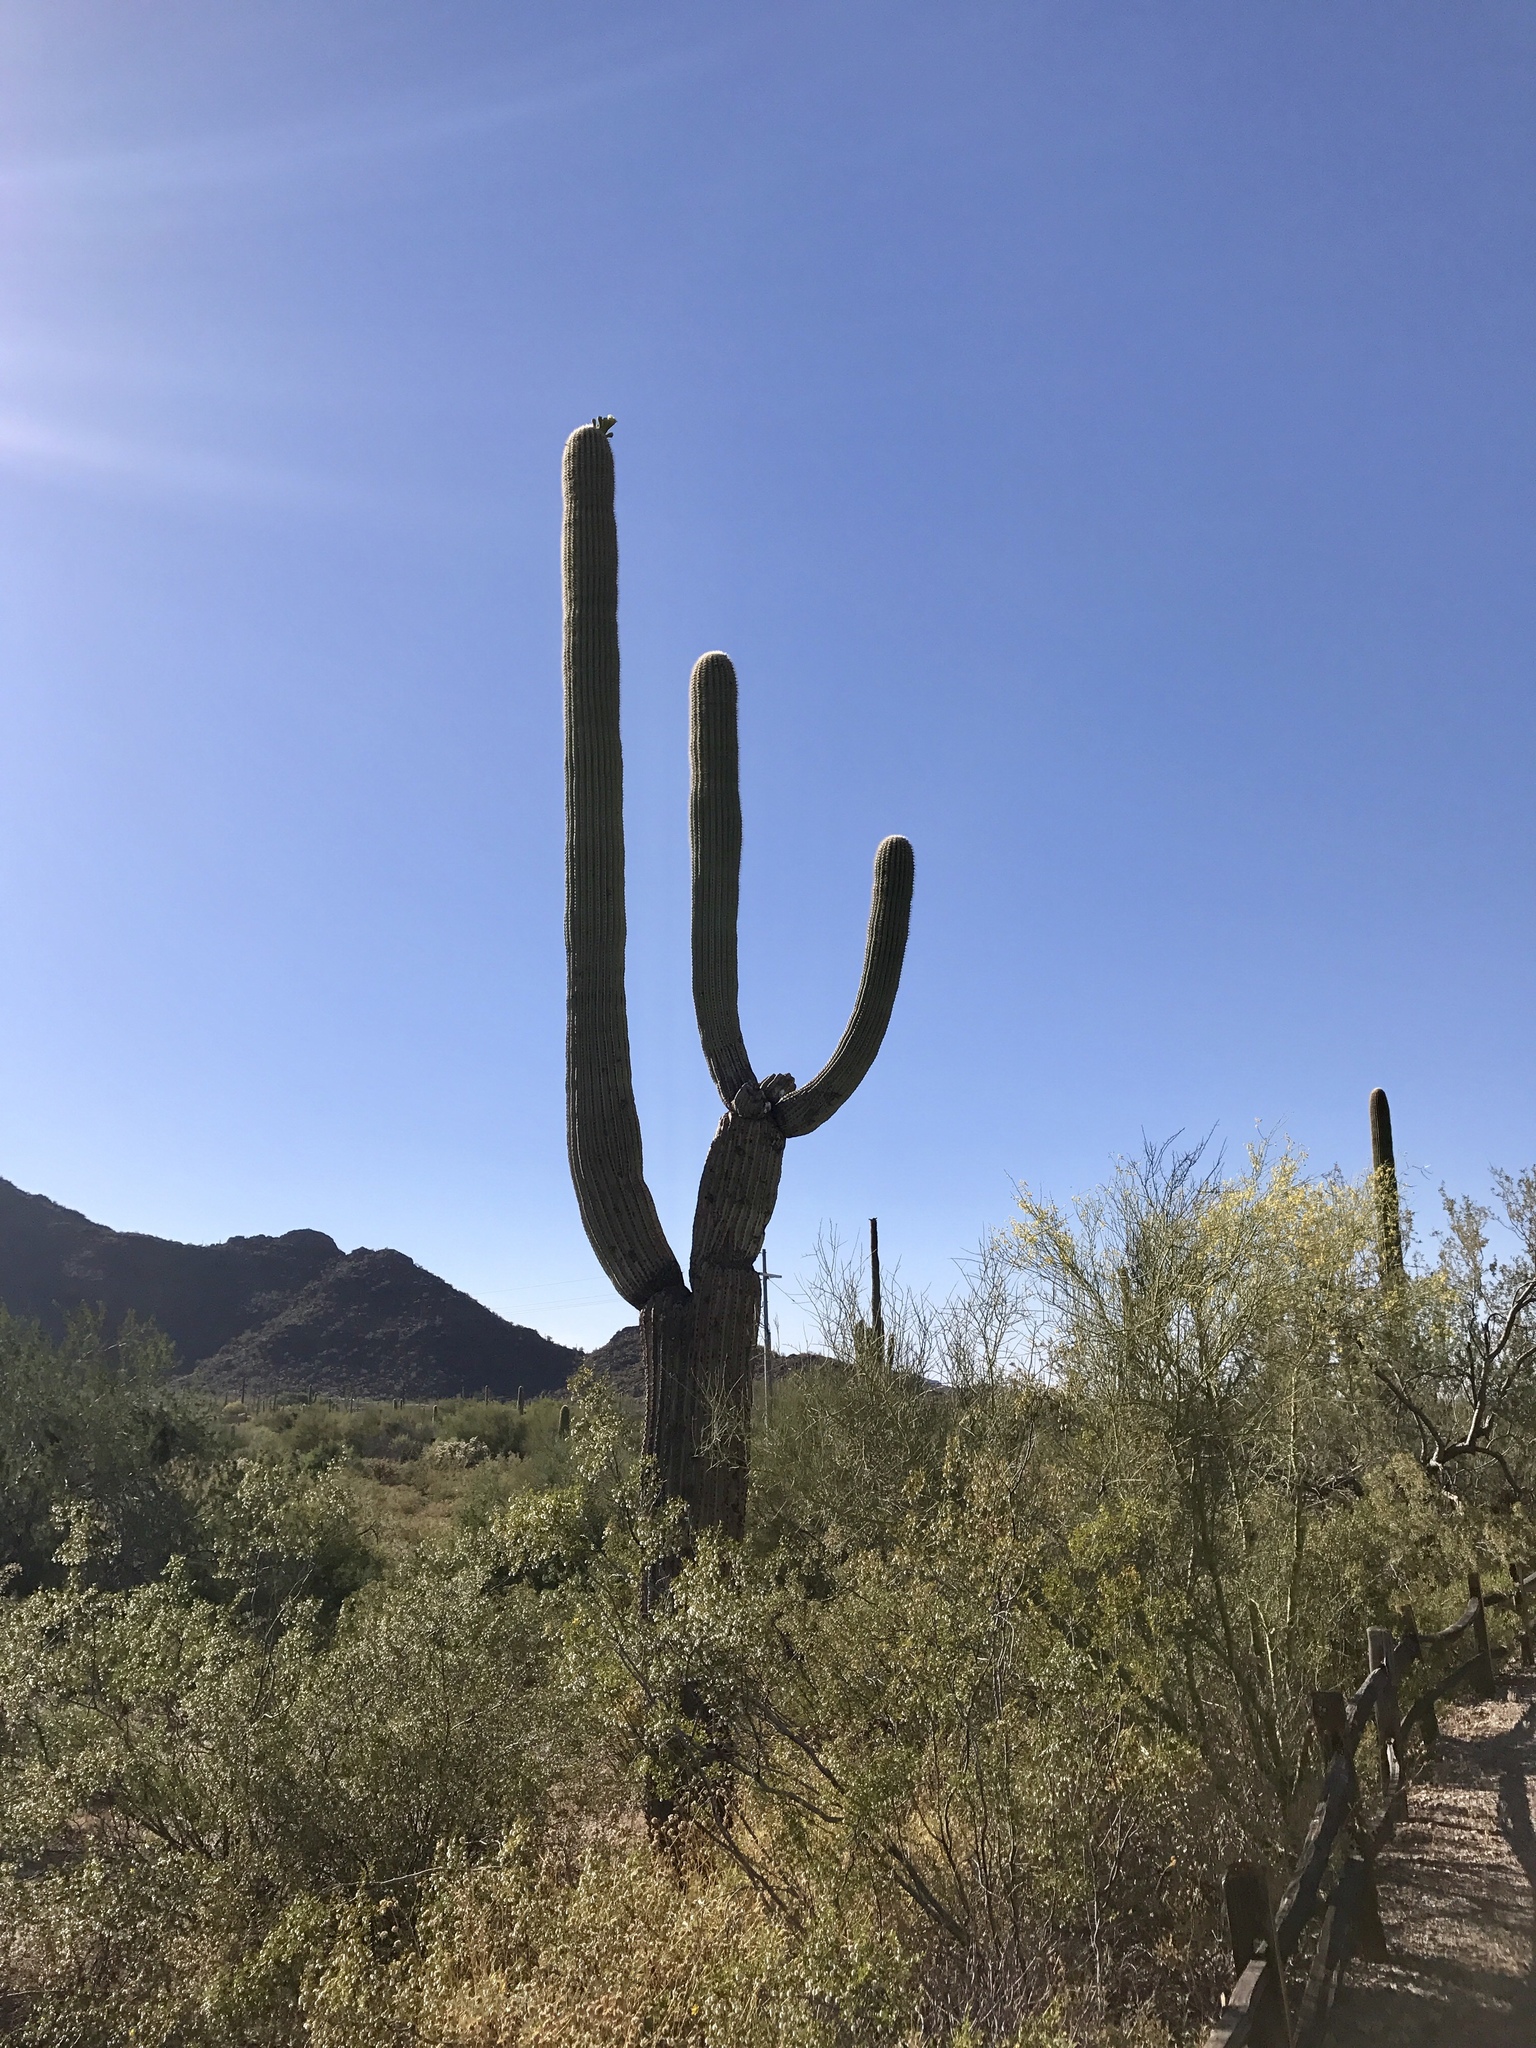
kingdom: Plantae
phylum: Tracheophyta
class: Magnoliopsida
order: Caryophyllales
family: Cactaceae
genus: Carnegiea
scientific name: Carnegiea gigantea
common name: Saguaro
